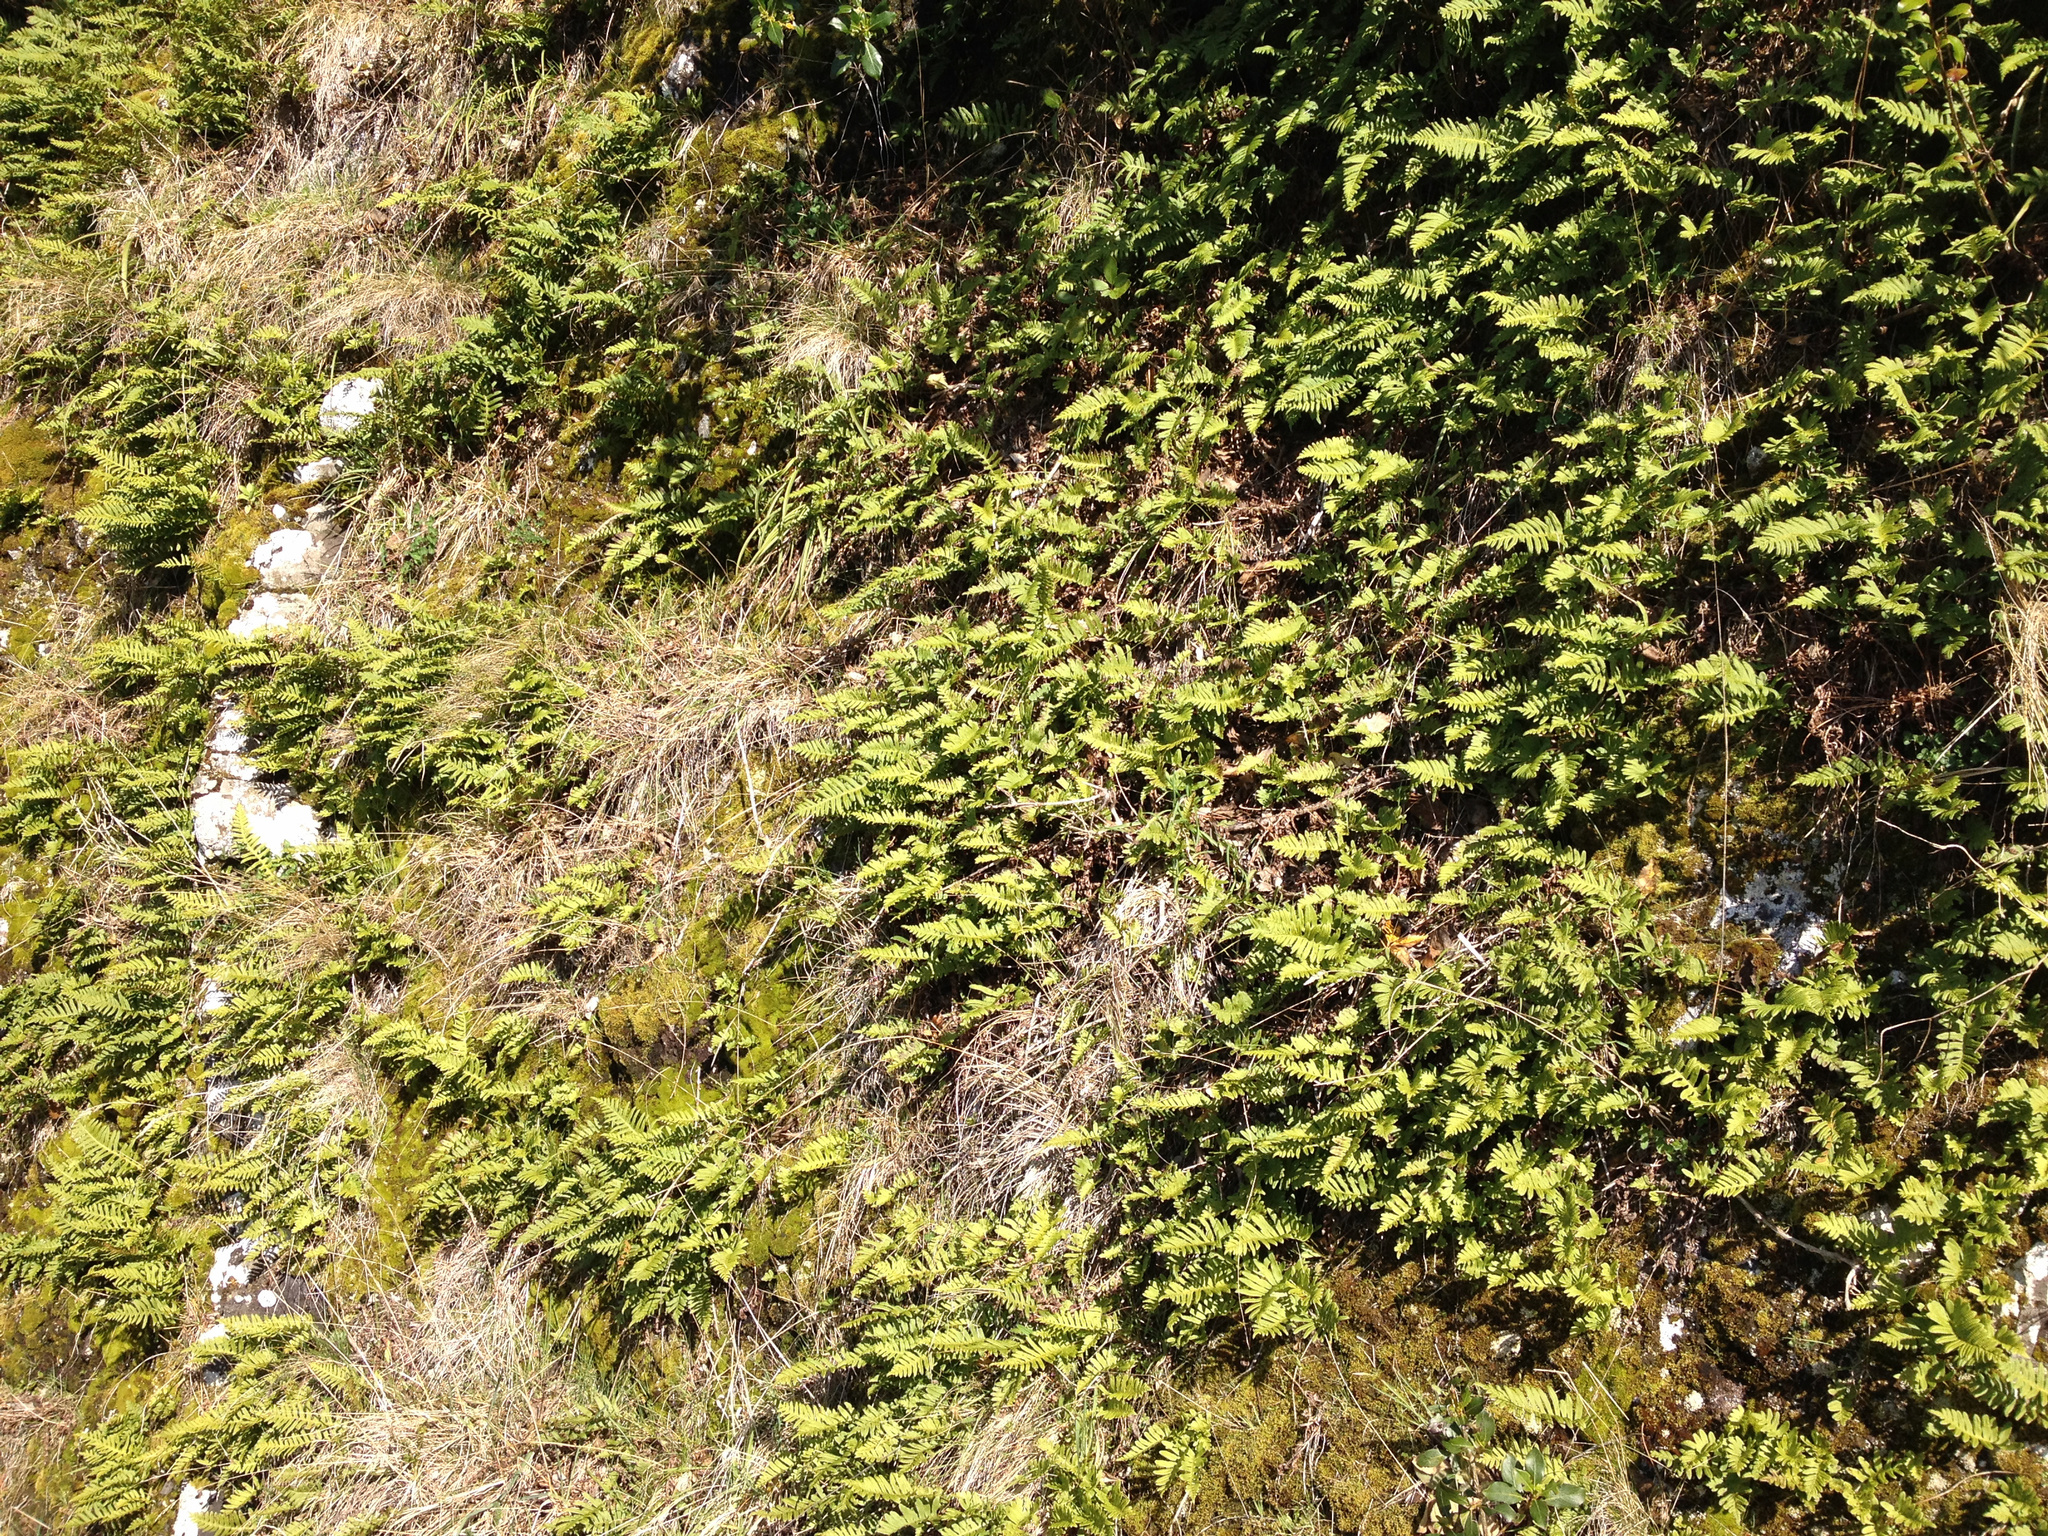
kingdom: Plantae
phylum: Tracheophyta
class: Polypodiopsida
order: Polypodiales
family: Polypodiaceae
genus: Polypodium
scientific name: Polypodium vulgare
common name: Common polypody
